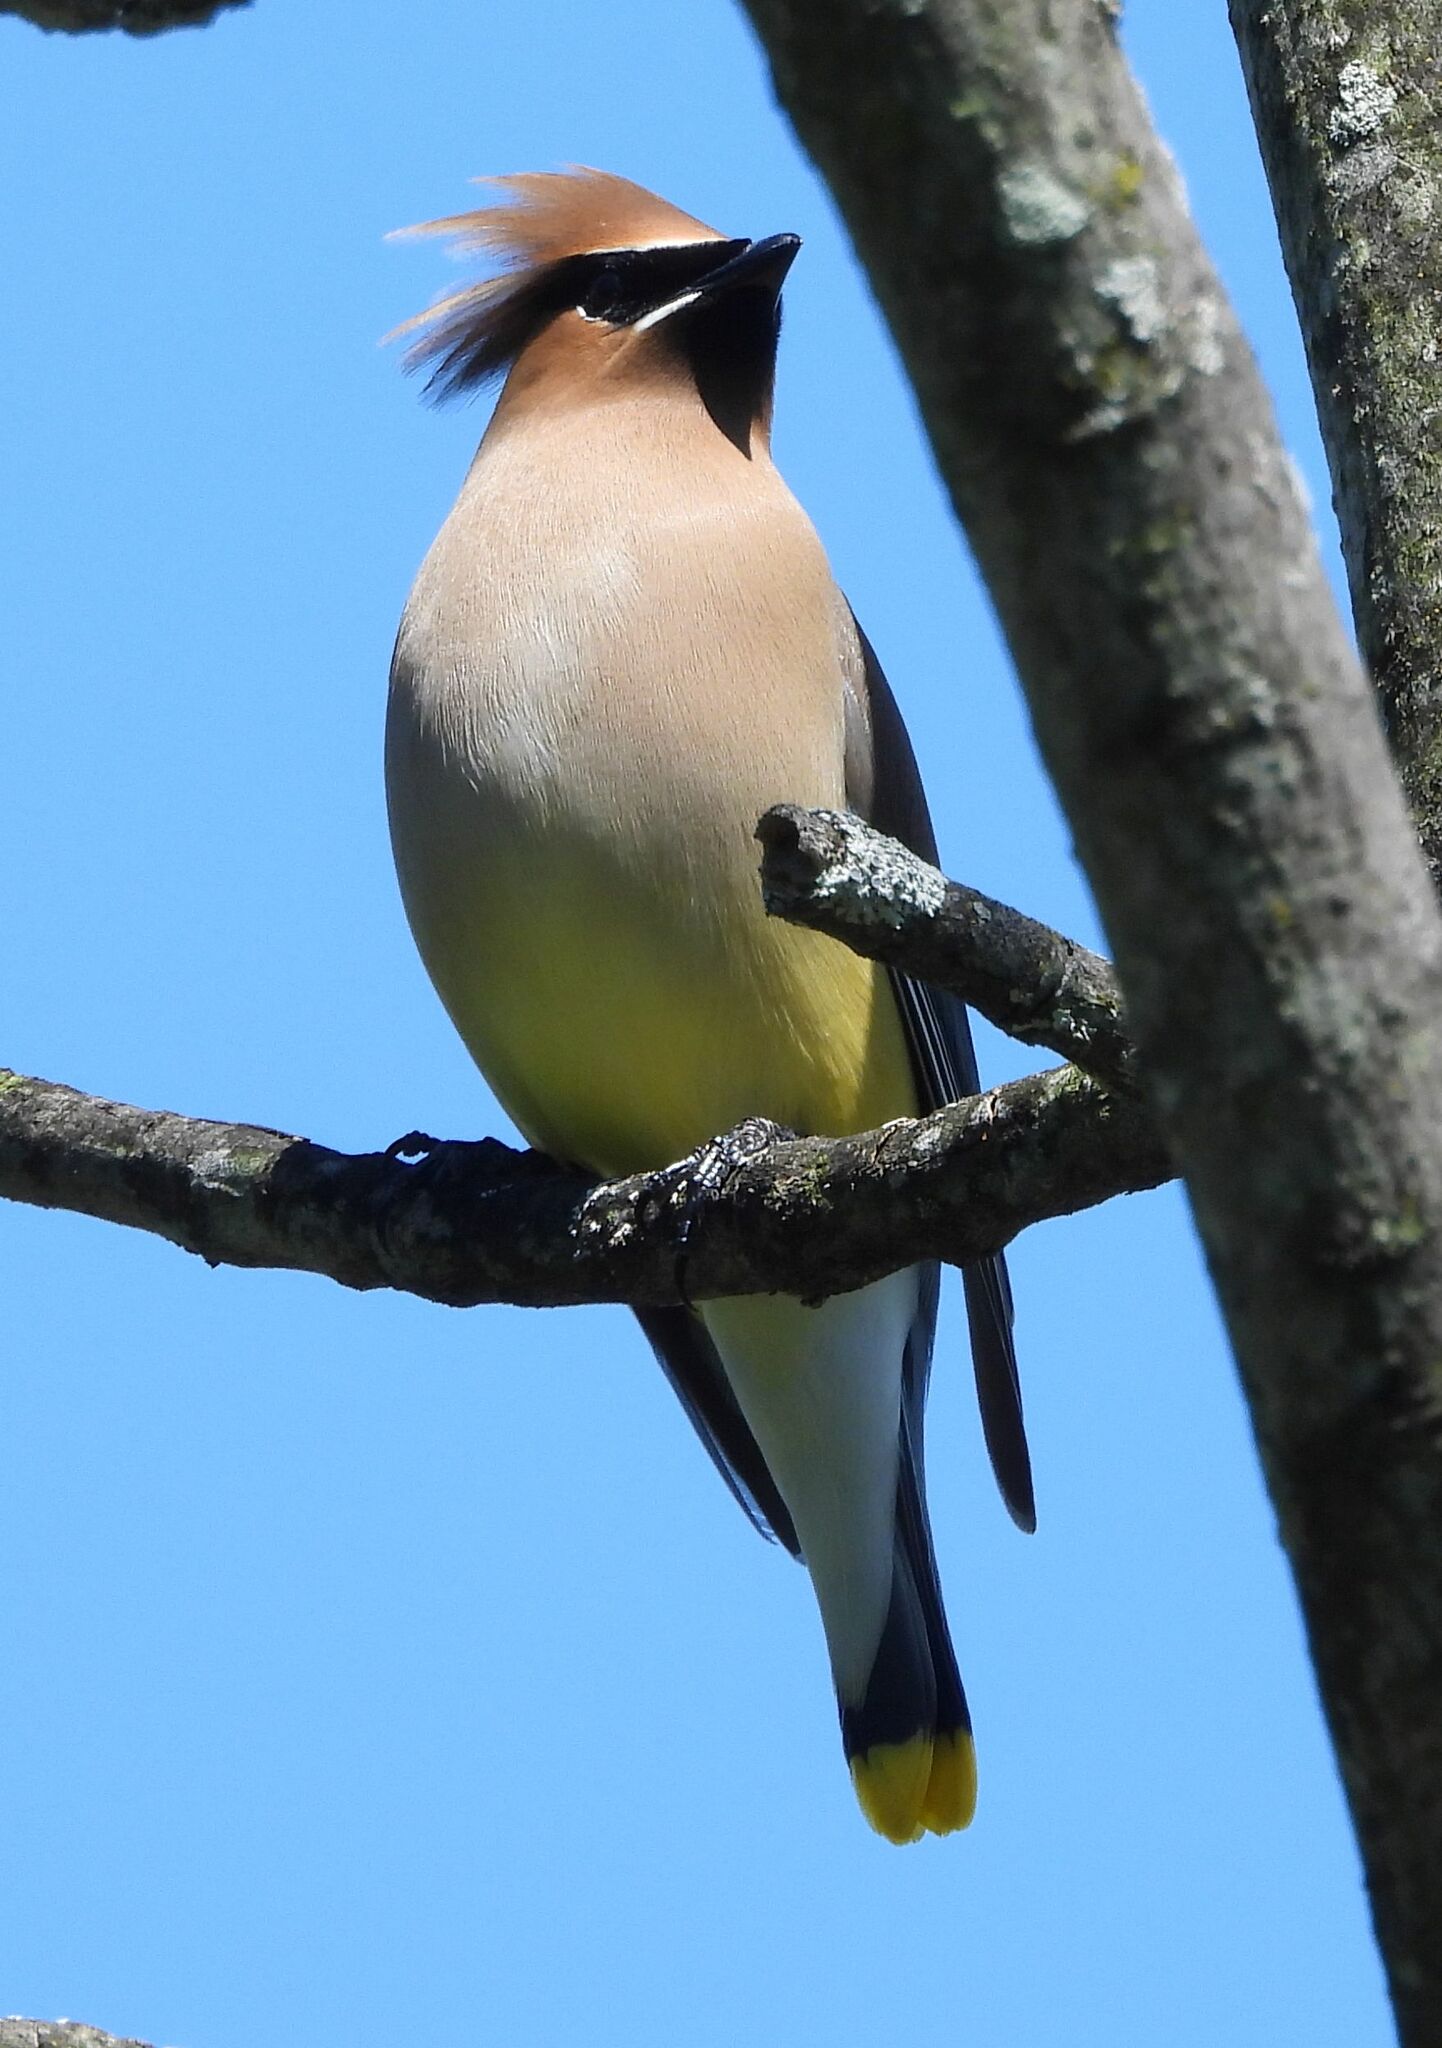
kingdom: Animalia
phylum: Chordata
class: Aves
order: Passeriformes
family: Bombycillidae
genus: Bombycilla
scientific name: Bombycilla cedrorum
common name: Cedar waxwing
